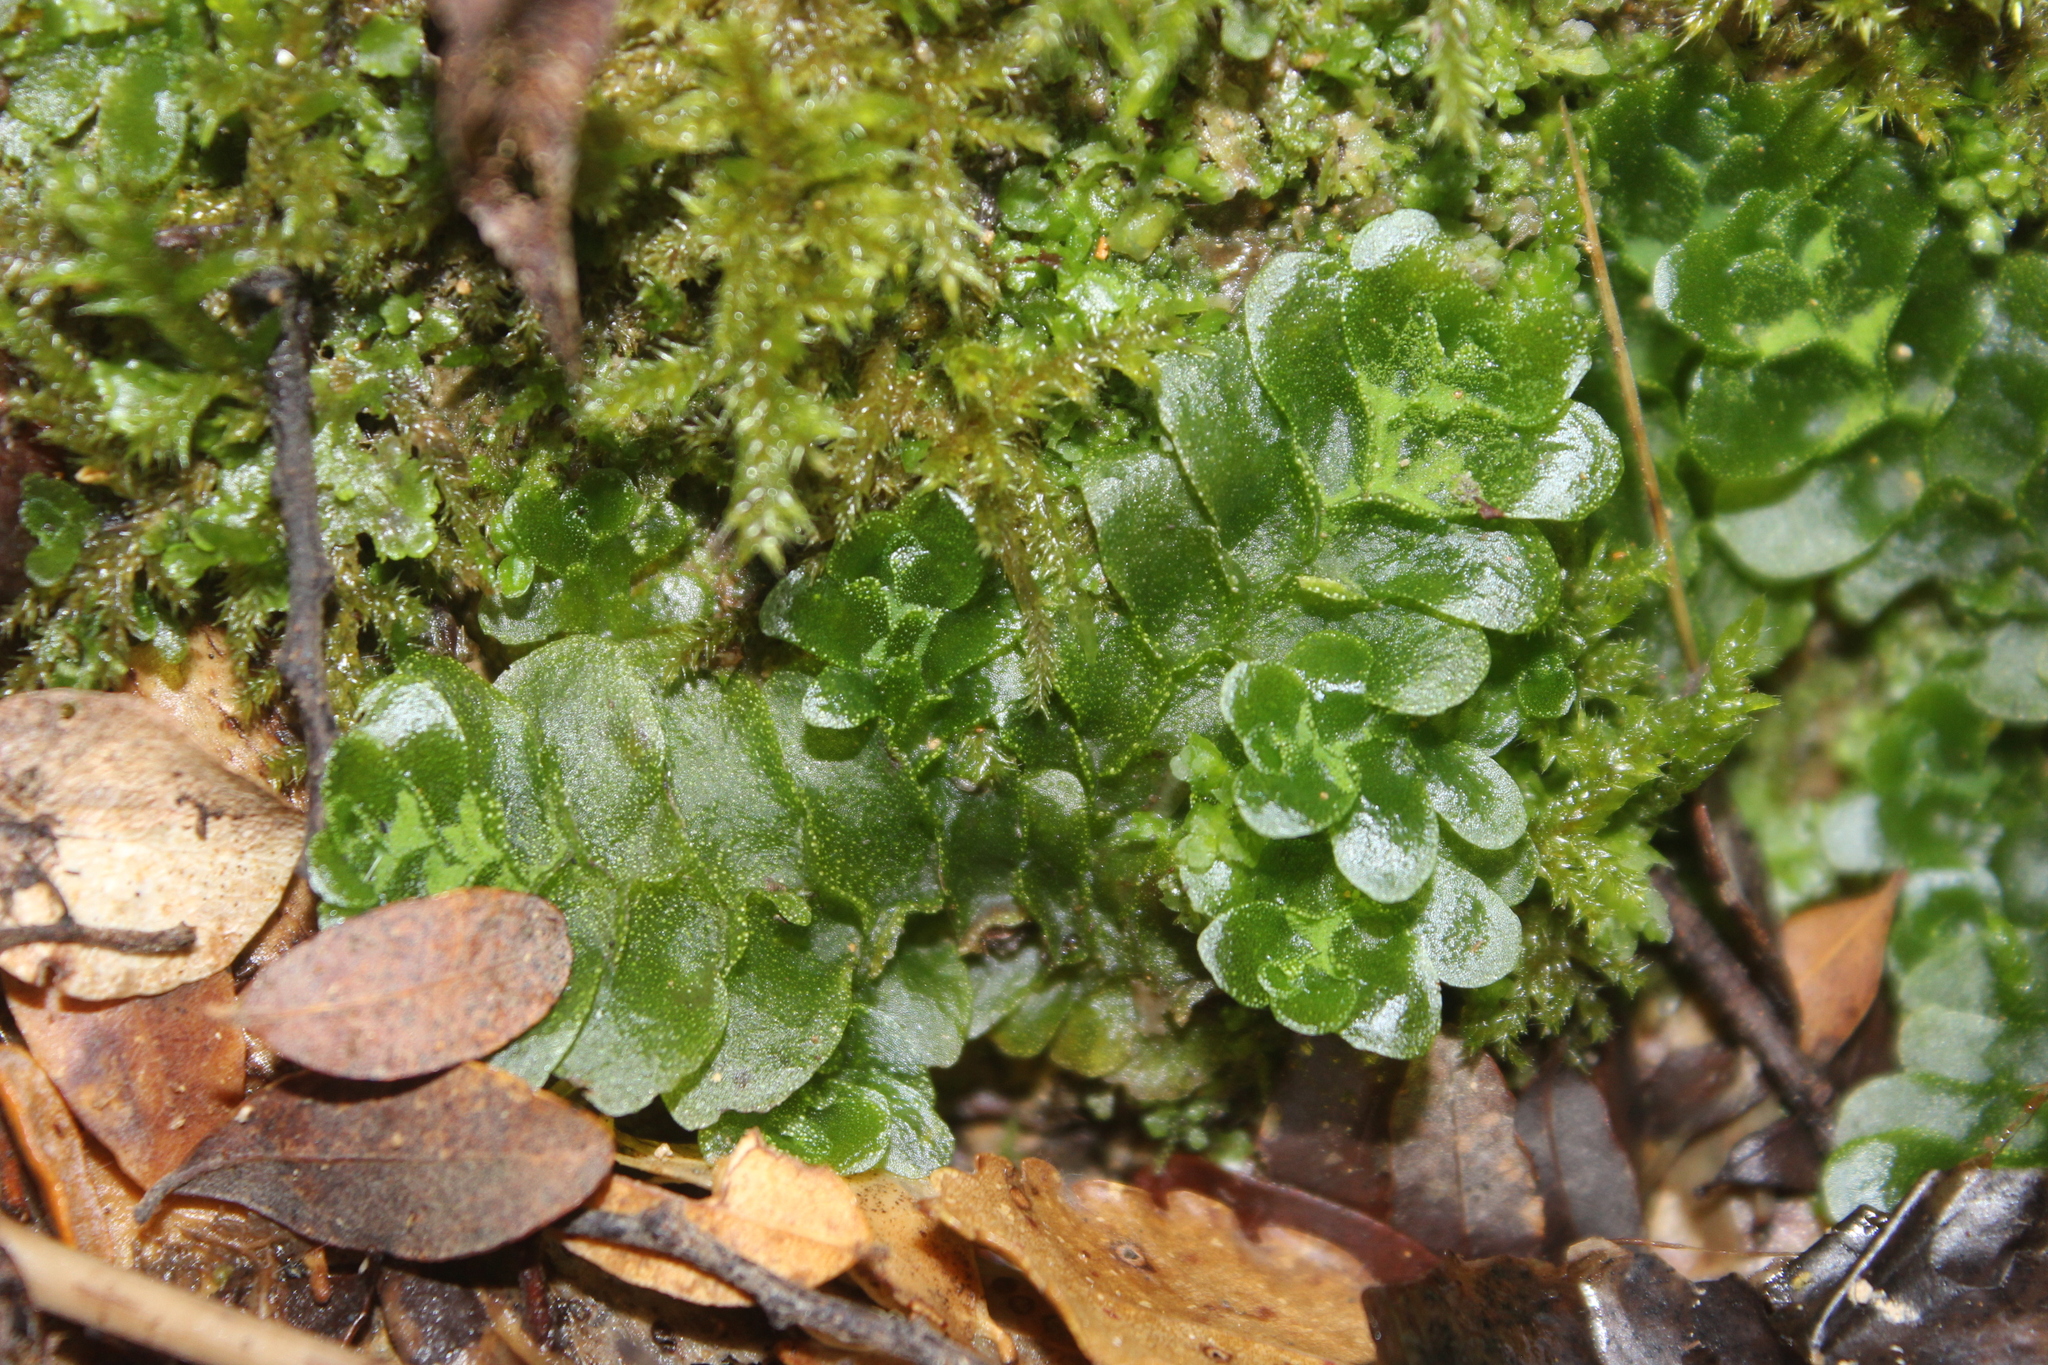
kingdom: Plantae
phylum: Marchantiophyta
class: Haplomitriopsida
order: Treubiales
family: Treubiaceae
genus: Treubia
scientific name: Treubia lacunosa
